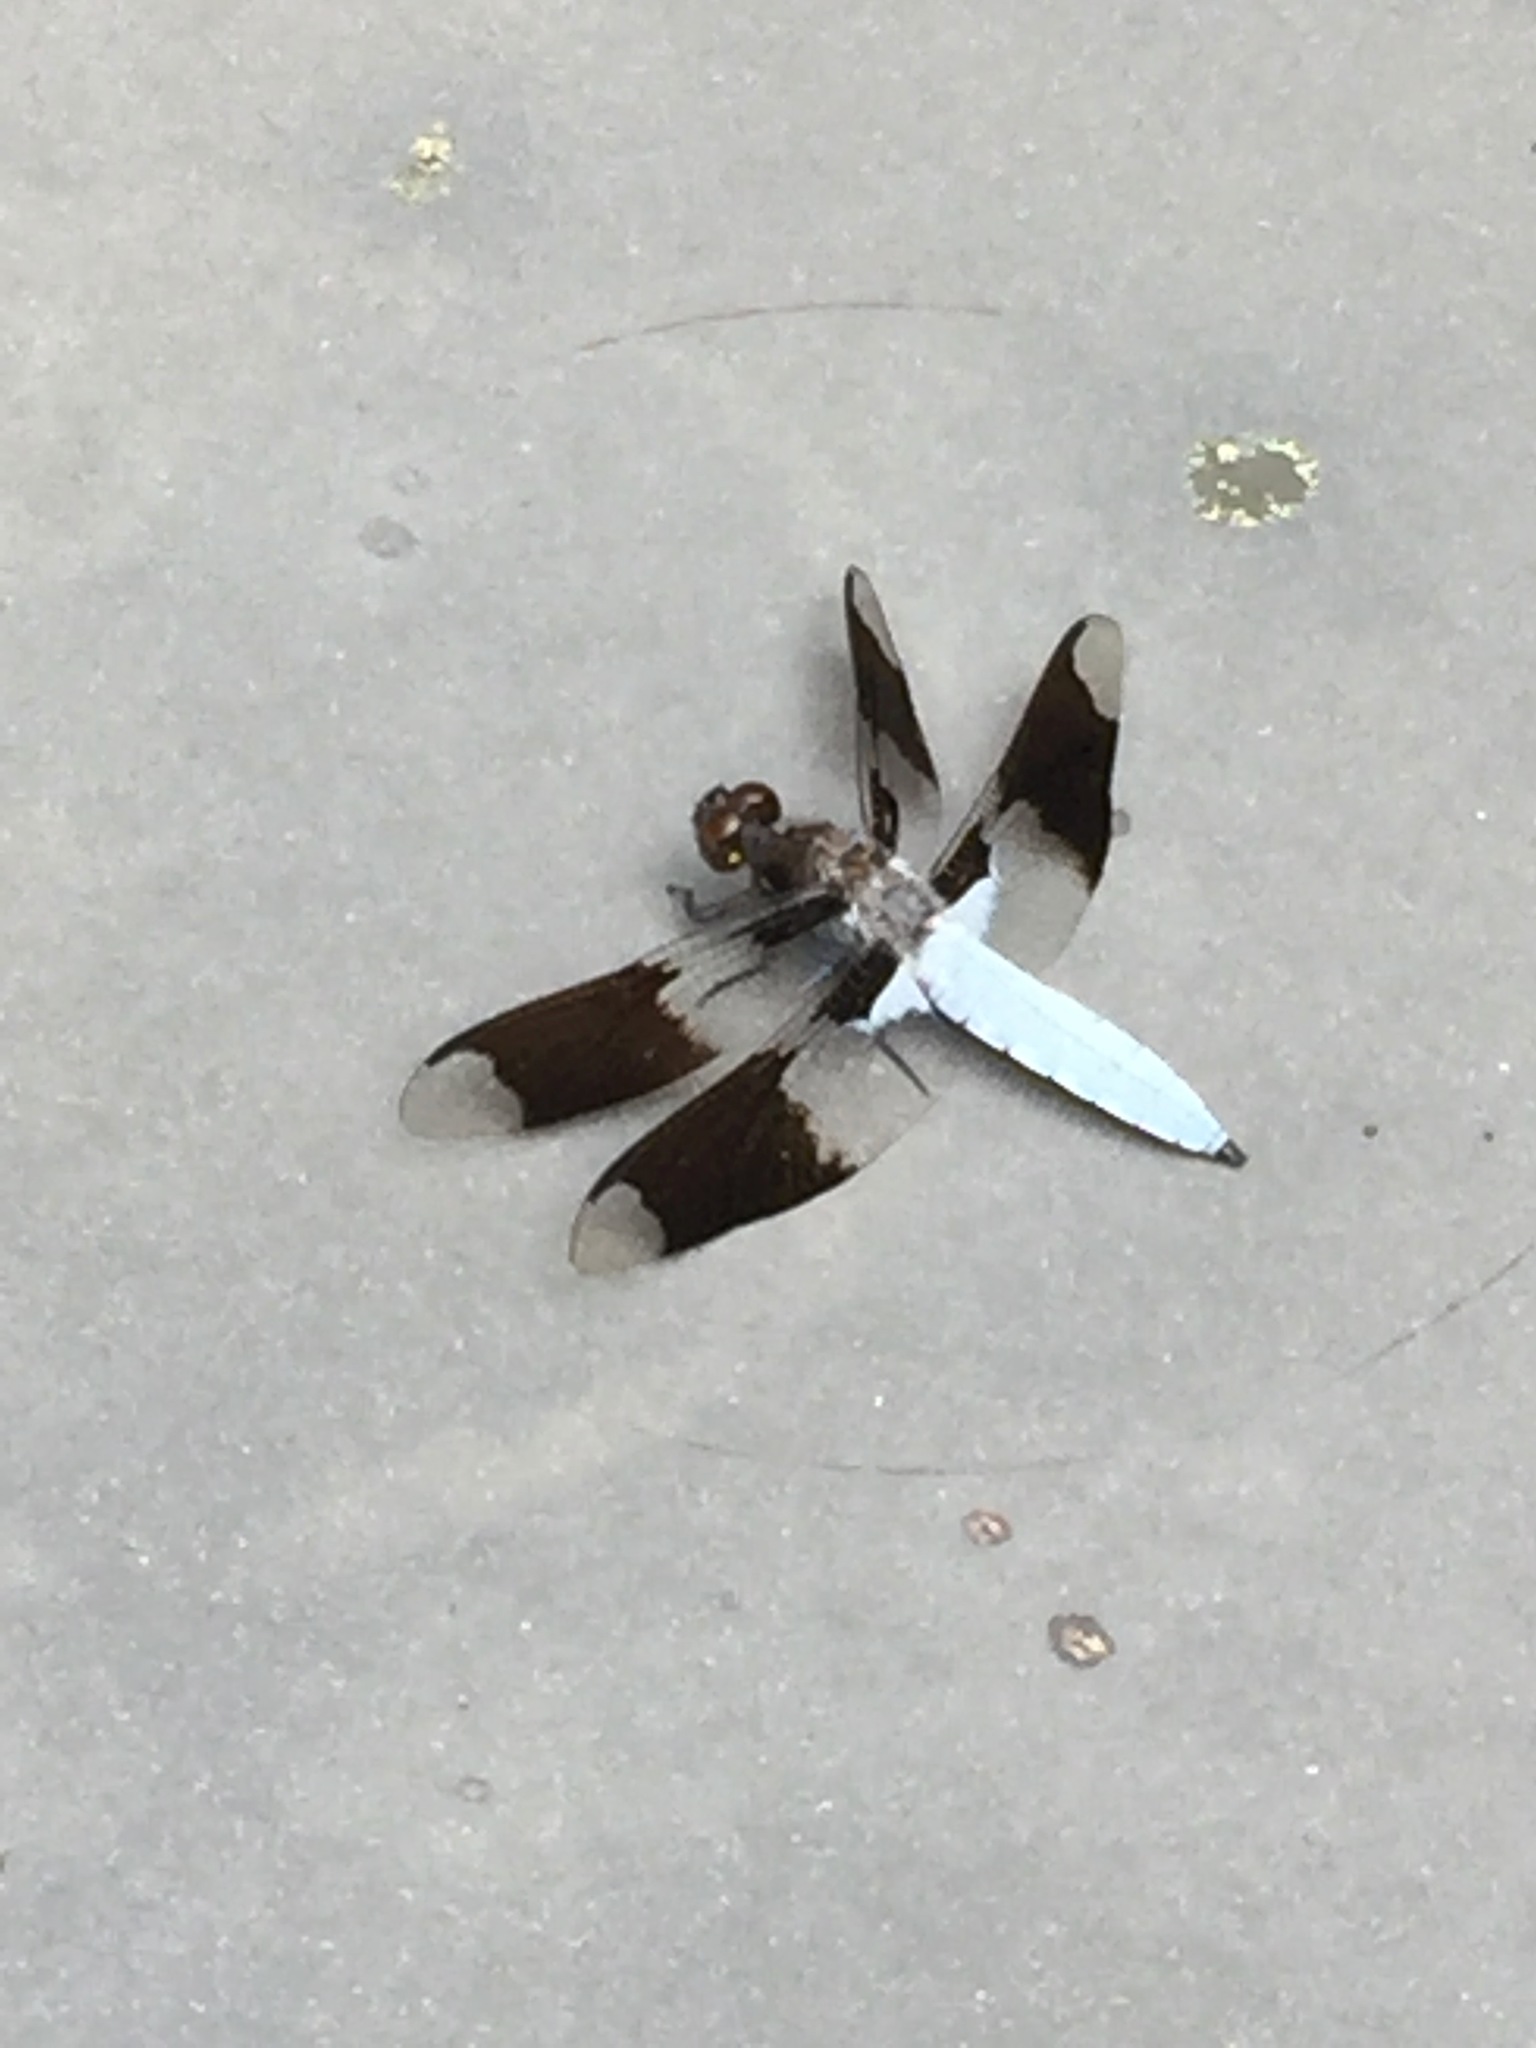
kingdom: Animalia
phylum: Arthropoda
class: Insecta
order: Odonata
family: Libellulidae
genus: Plathemis
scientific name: Plathemis lydia
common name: Common whitetail
